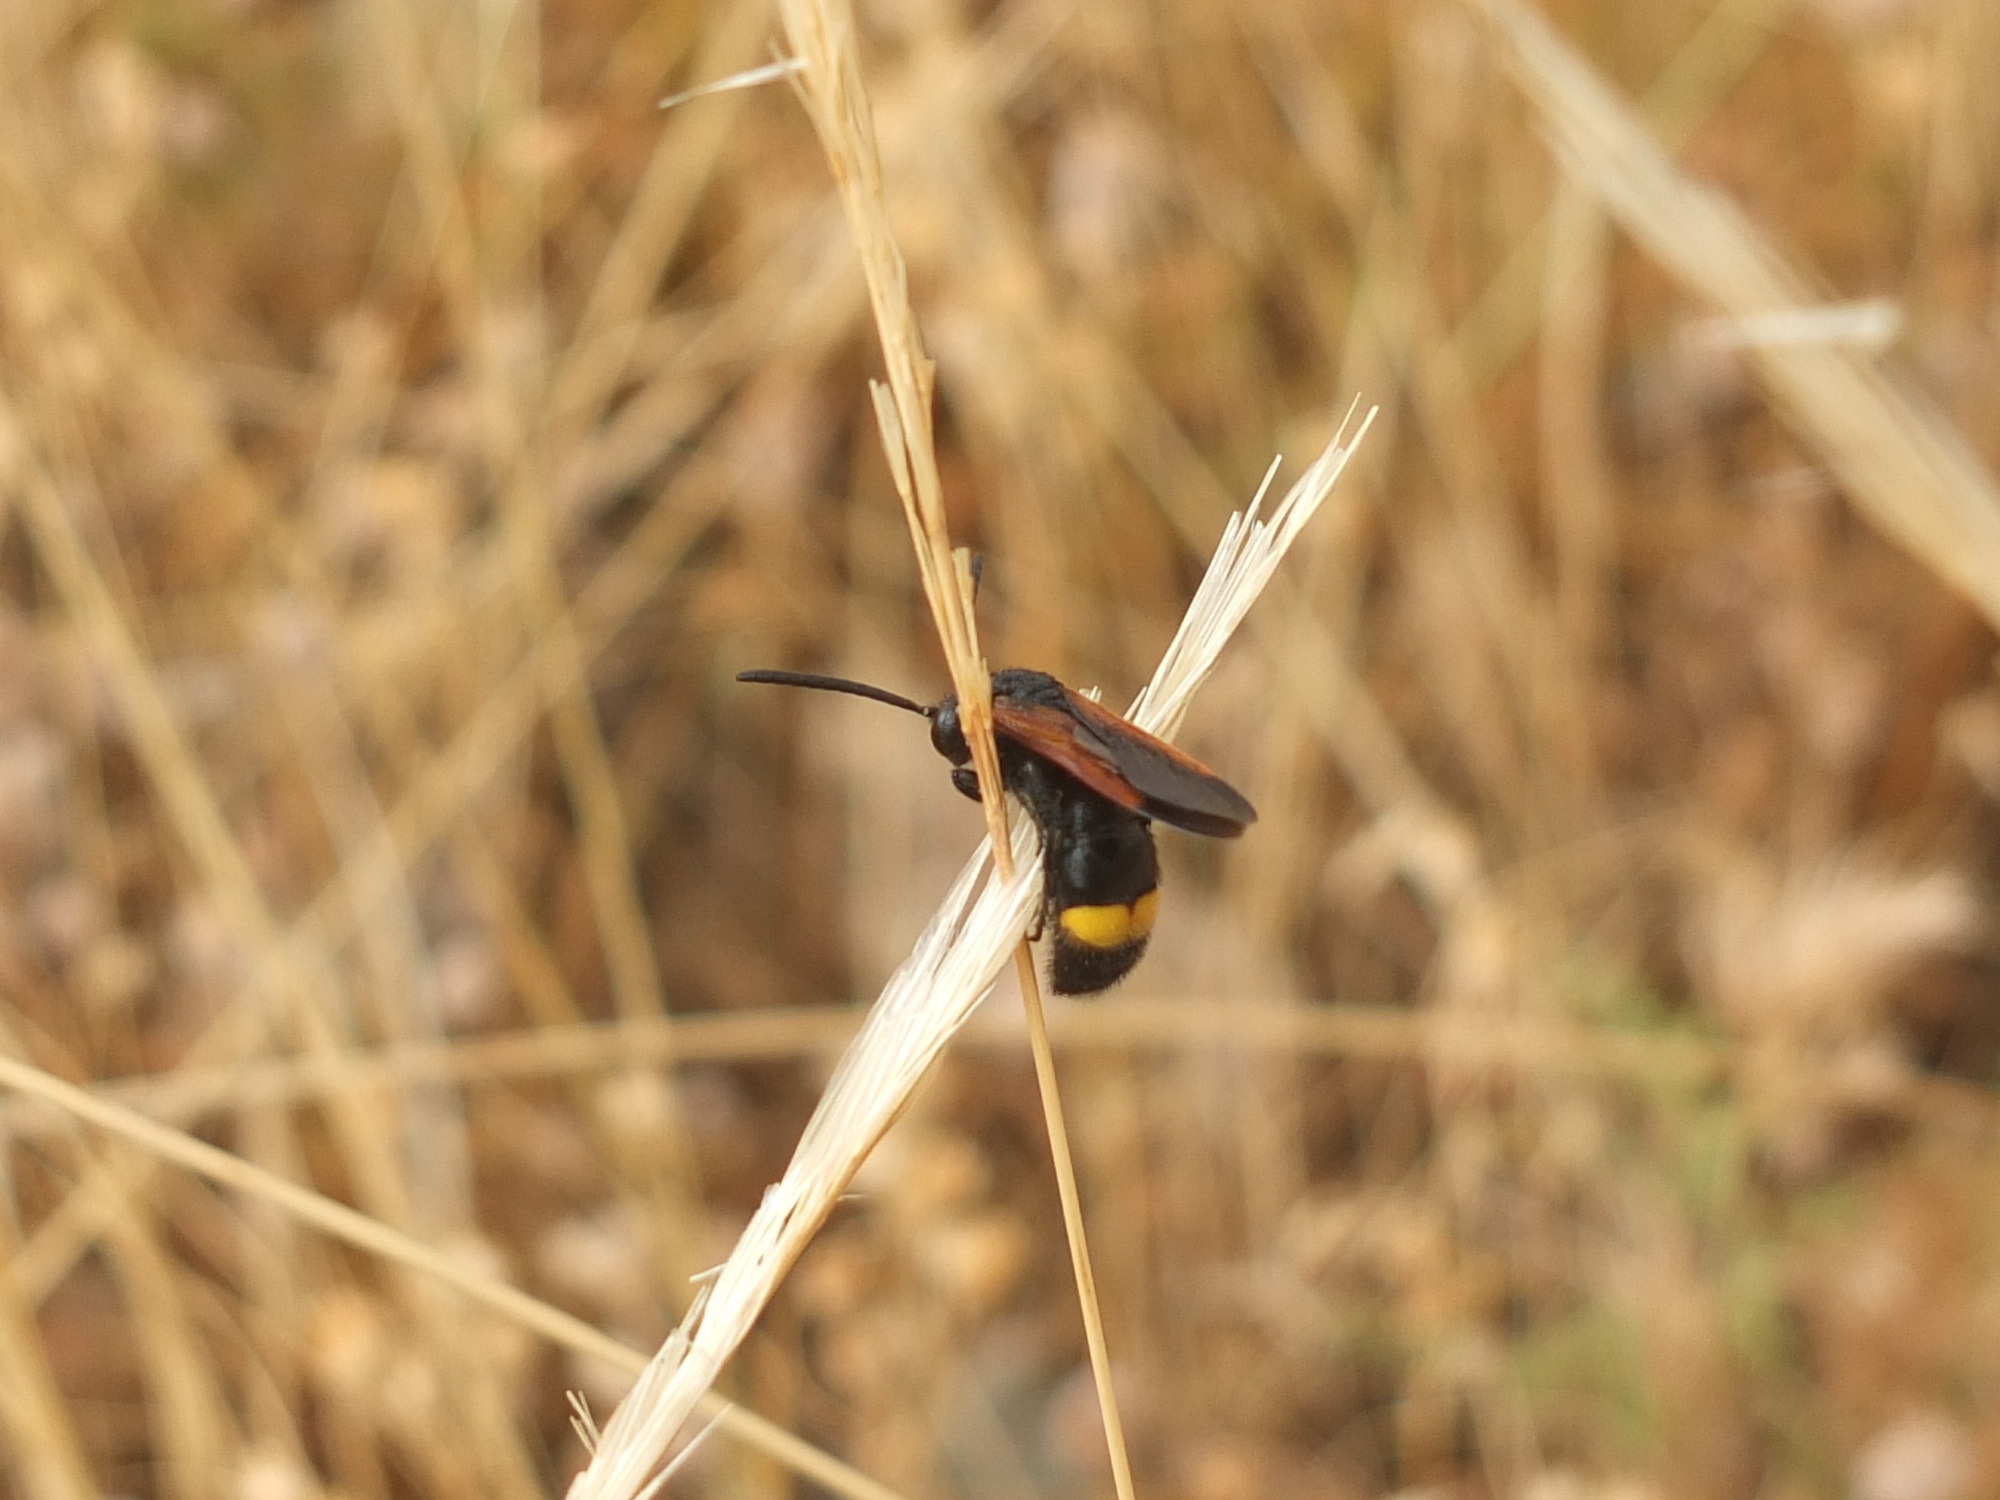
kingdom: Animalia
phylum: Arthropoda
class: Insecta
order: Hymenoptera
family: Scoliidae
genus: Scolia
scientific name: Scolia hirta
